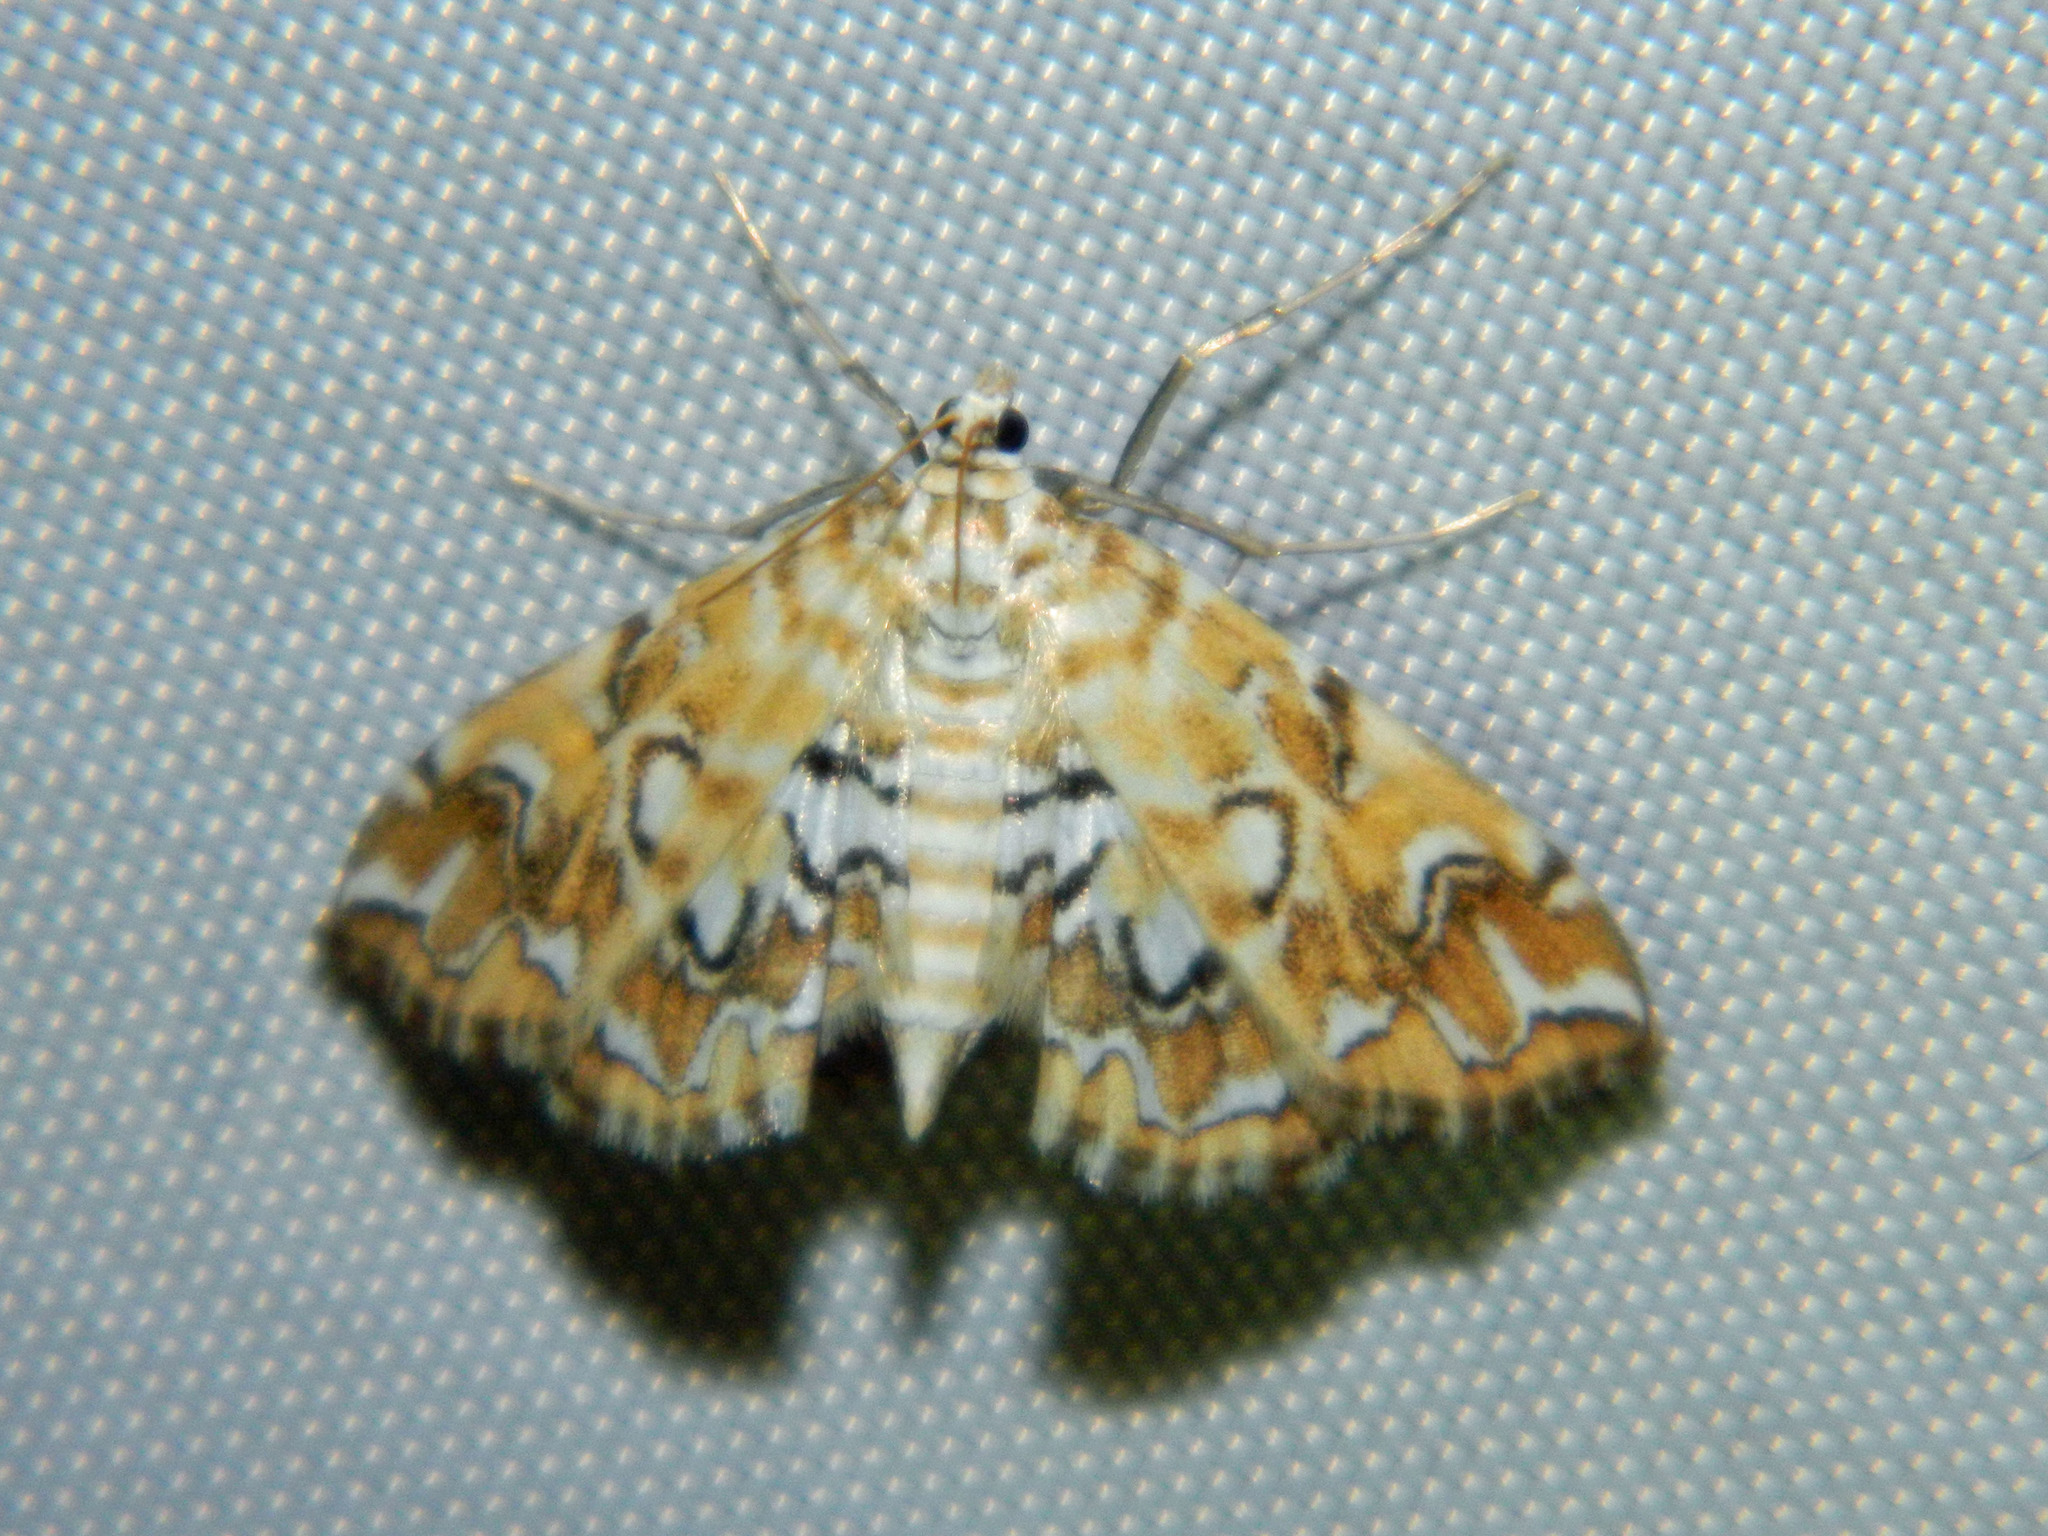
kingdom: Animalia
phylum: Arthropoda
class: Insecta
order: Lepidoptera
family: Crambidae
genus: Elophila
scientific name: Elophila icciusalis
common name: Pondside pyralid moth
